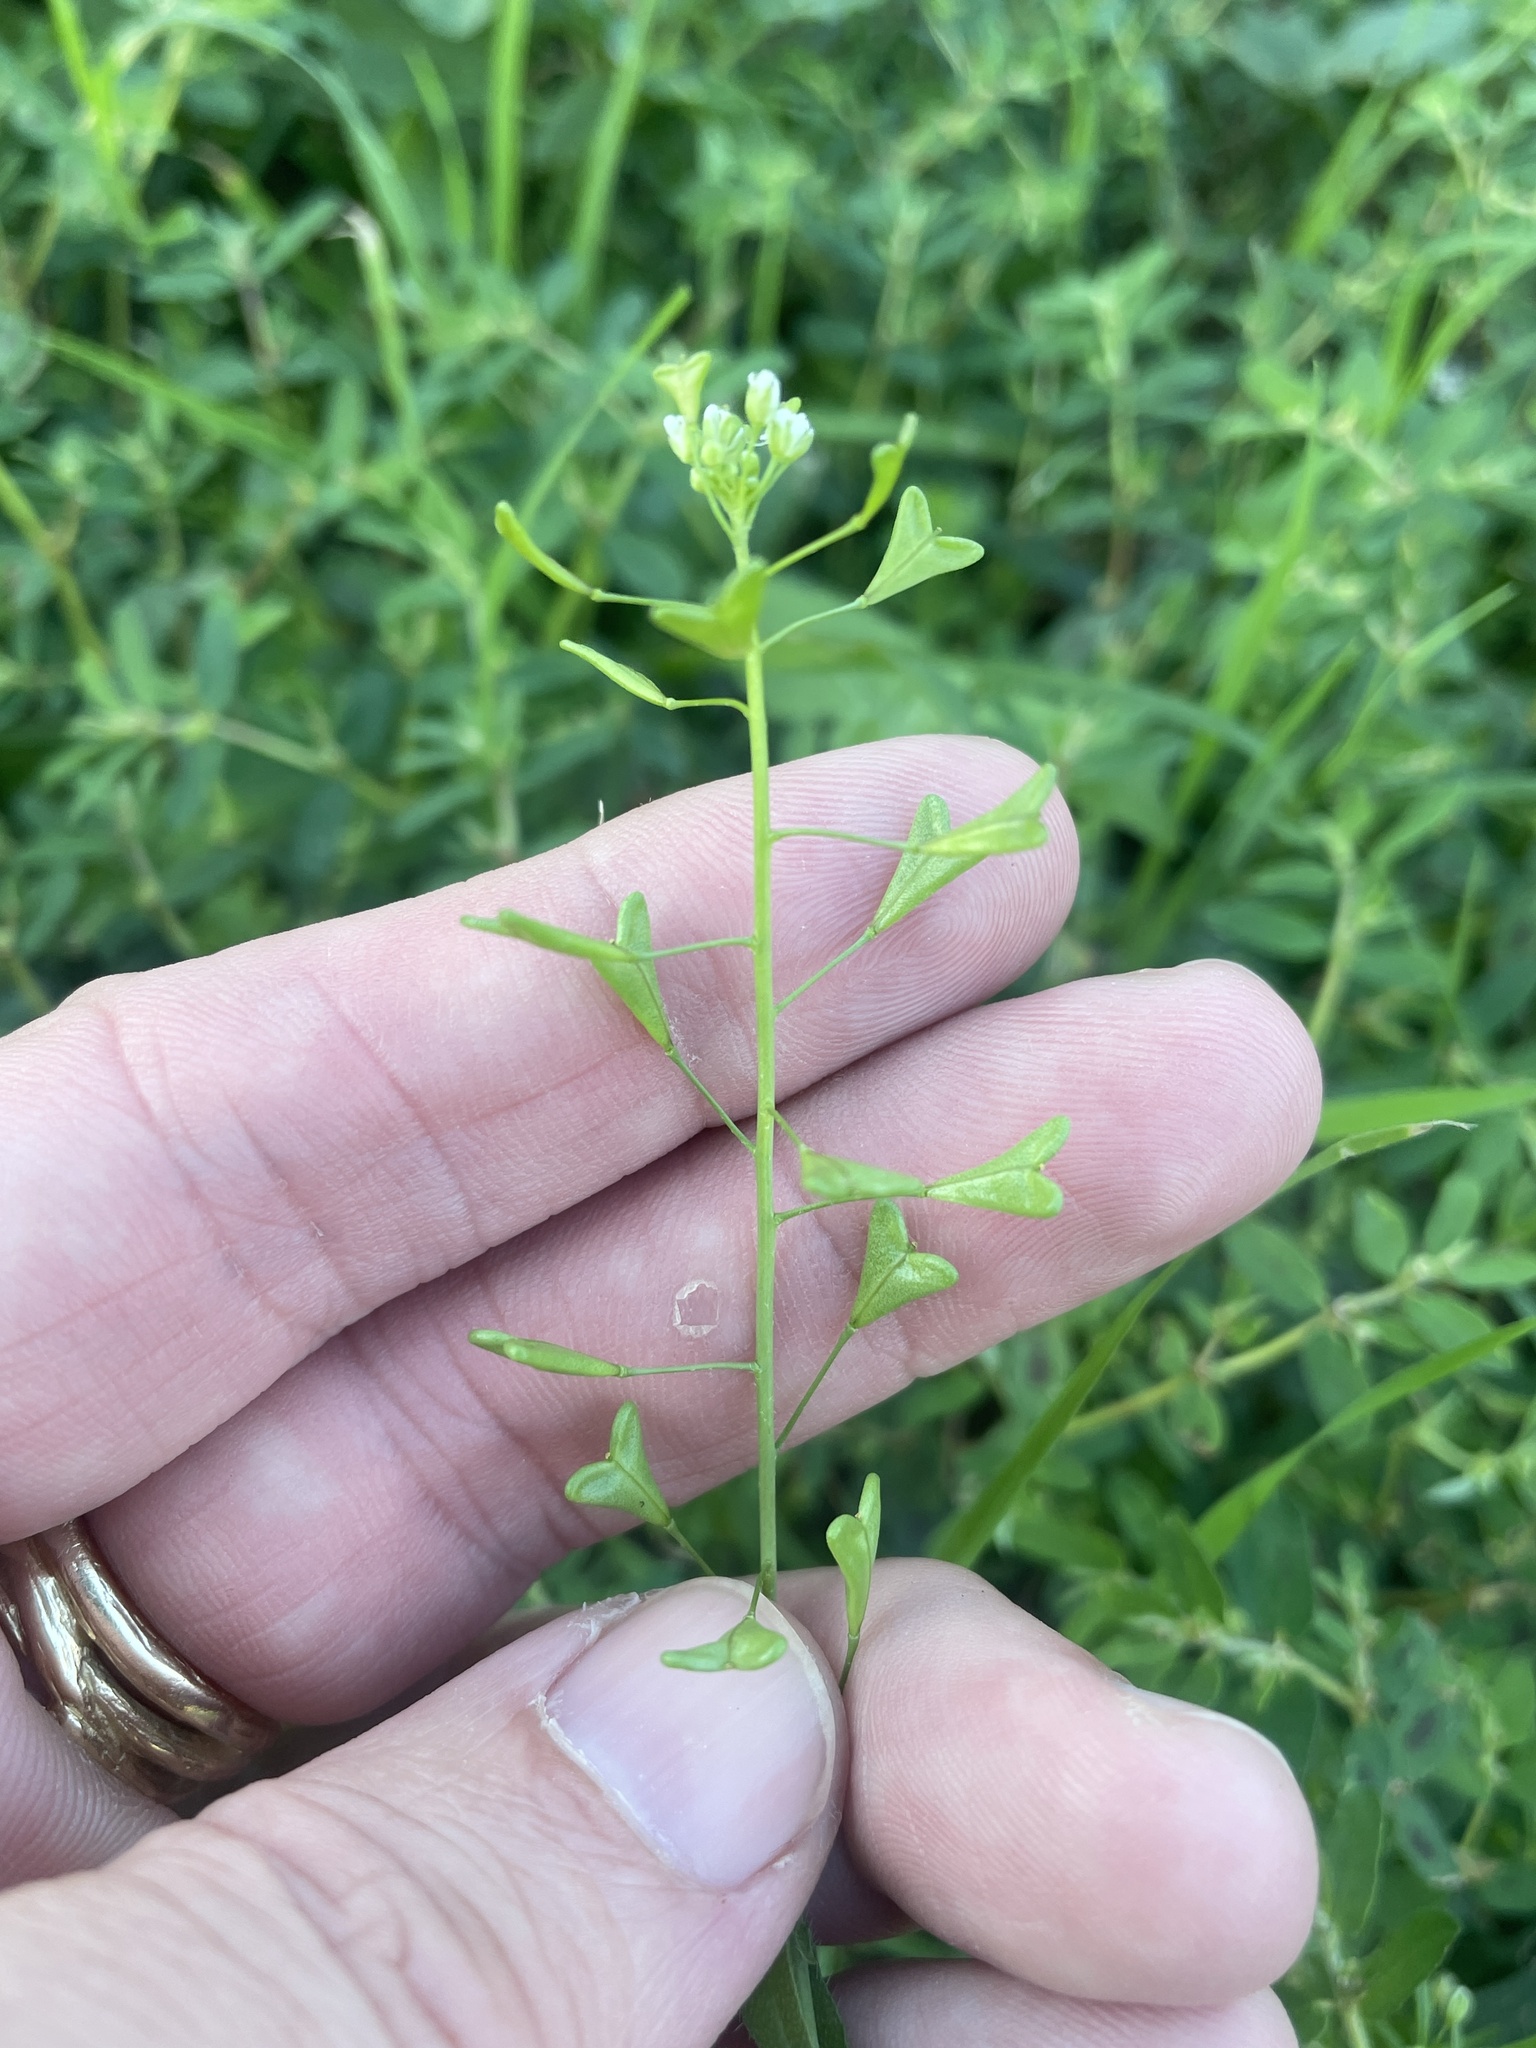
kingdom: Plantae
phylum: Tracheophyta
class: Magnoliopsida
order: Brassicales
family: Brassicaceae
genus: Capsella
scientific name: Capsella bursa-pastoris
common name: Shepherd's purse
